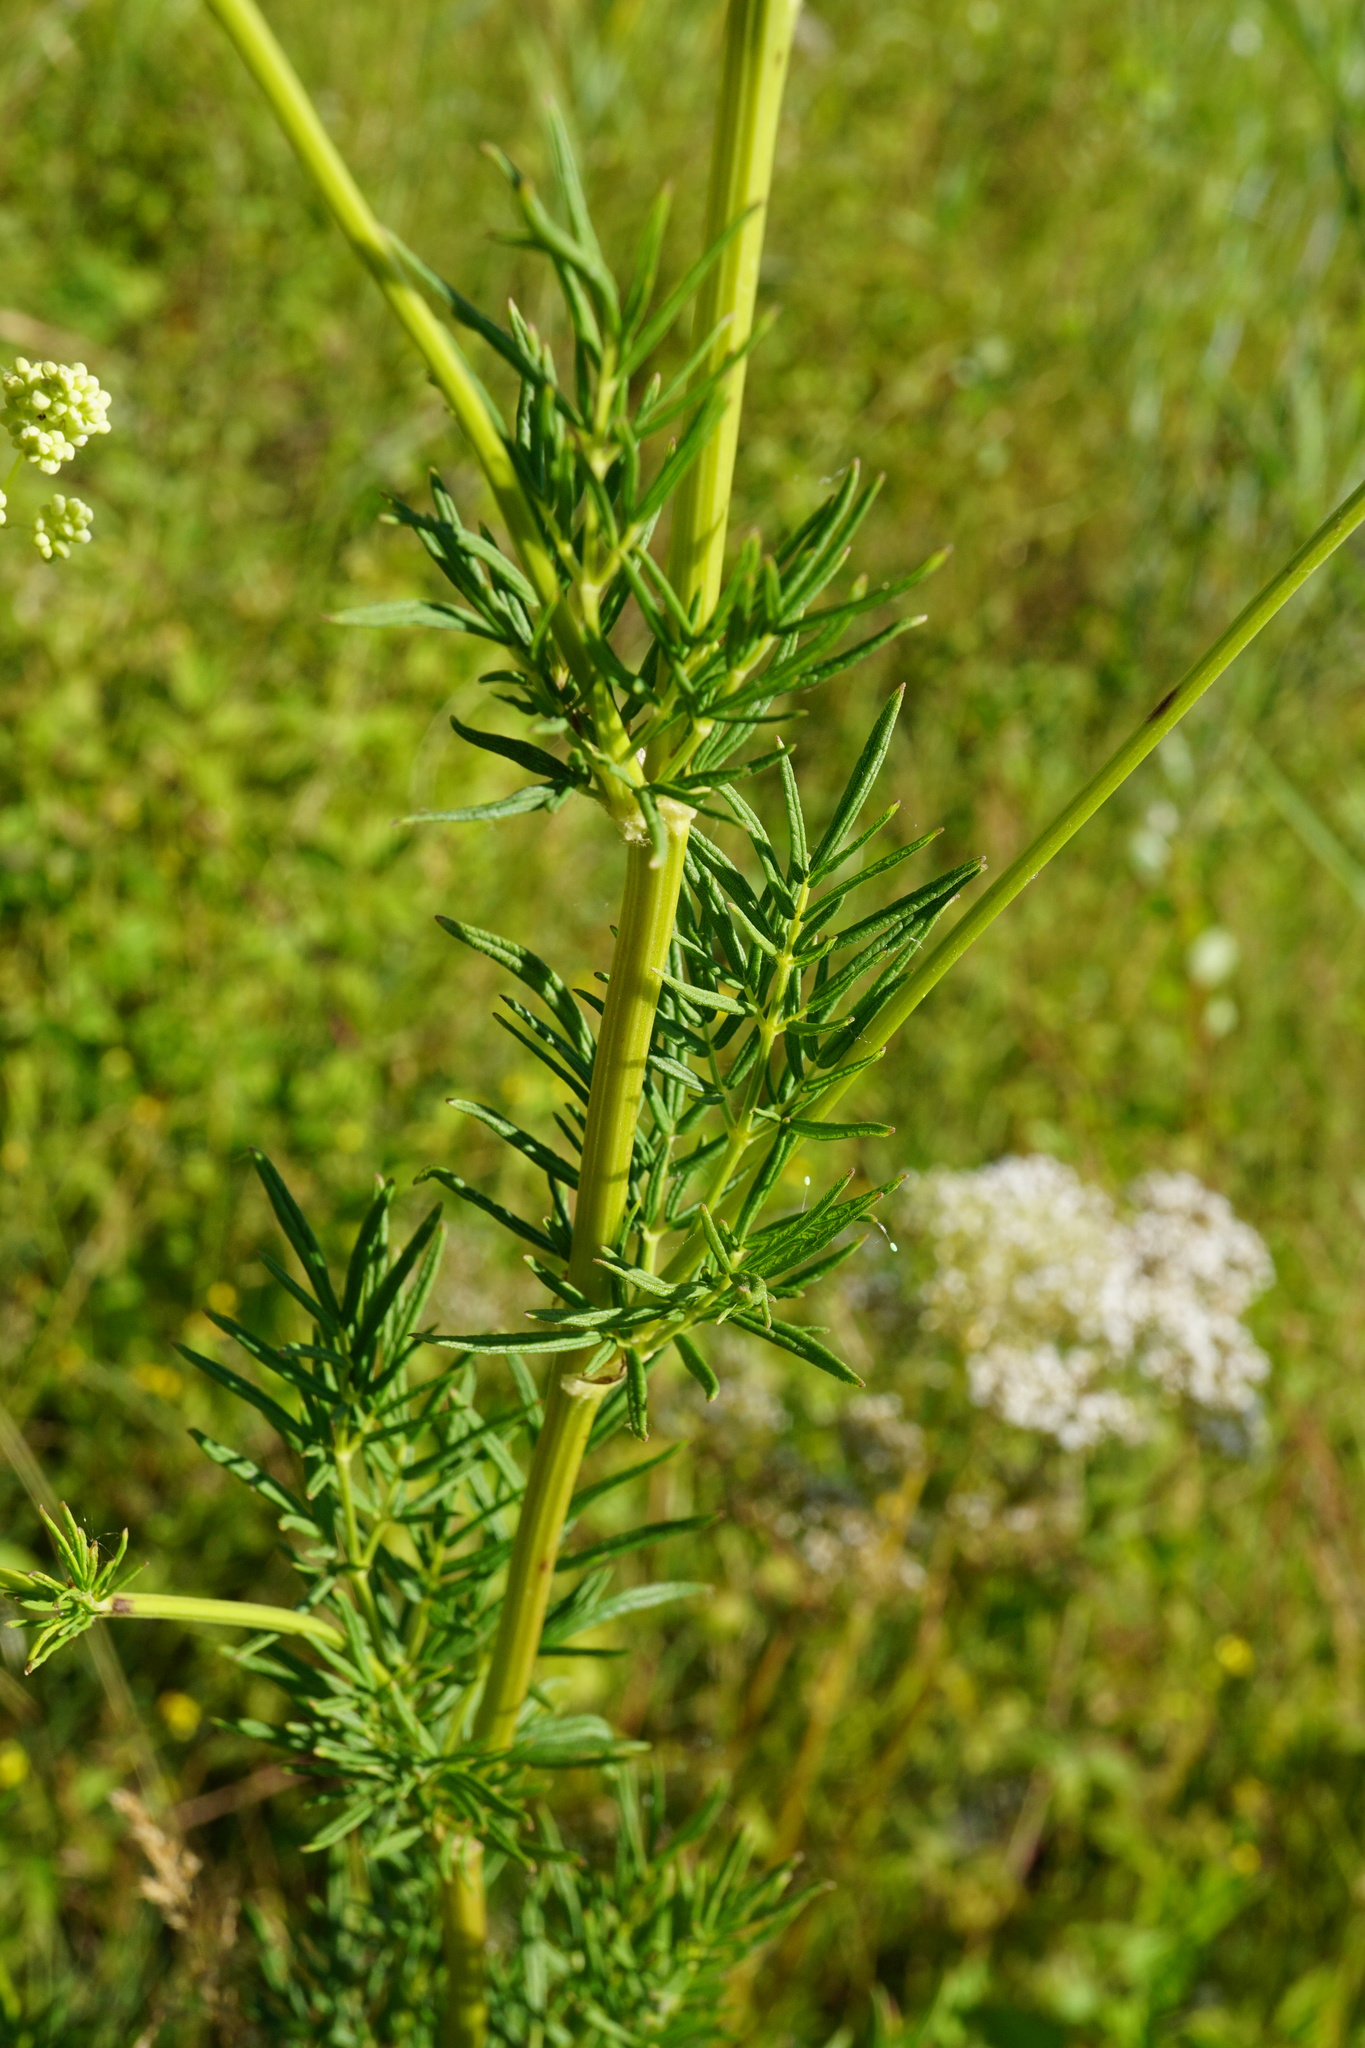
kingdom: Plantae
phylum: Tracheophyta
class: Magnoliopsida
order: Ranunculales
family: Ranunculaceae
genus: Thalictrum
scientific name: Thalictrum lucidum
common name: Shining meadow-rue
